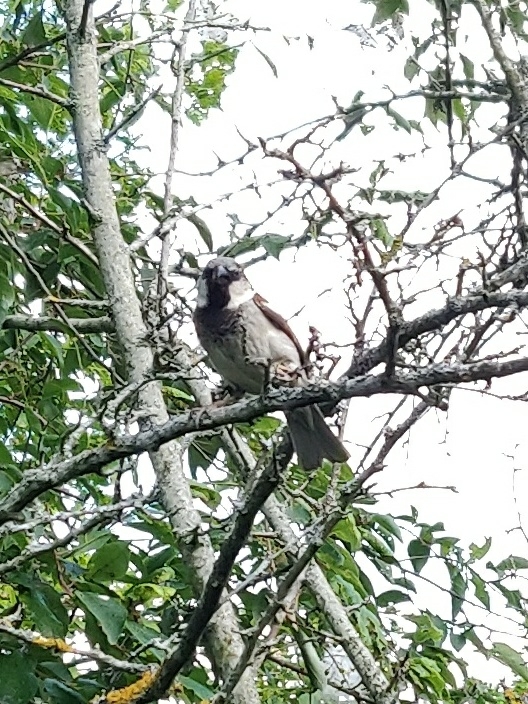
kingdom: Animalia
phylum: Chordata
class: Aves
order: Passeriformes
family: Passeridae
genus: Passer
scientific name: Passer domesticus
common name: House sparrow
